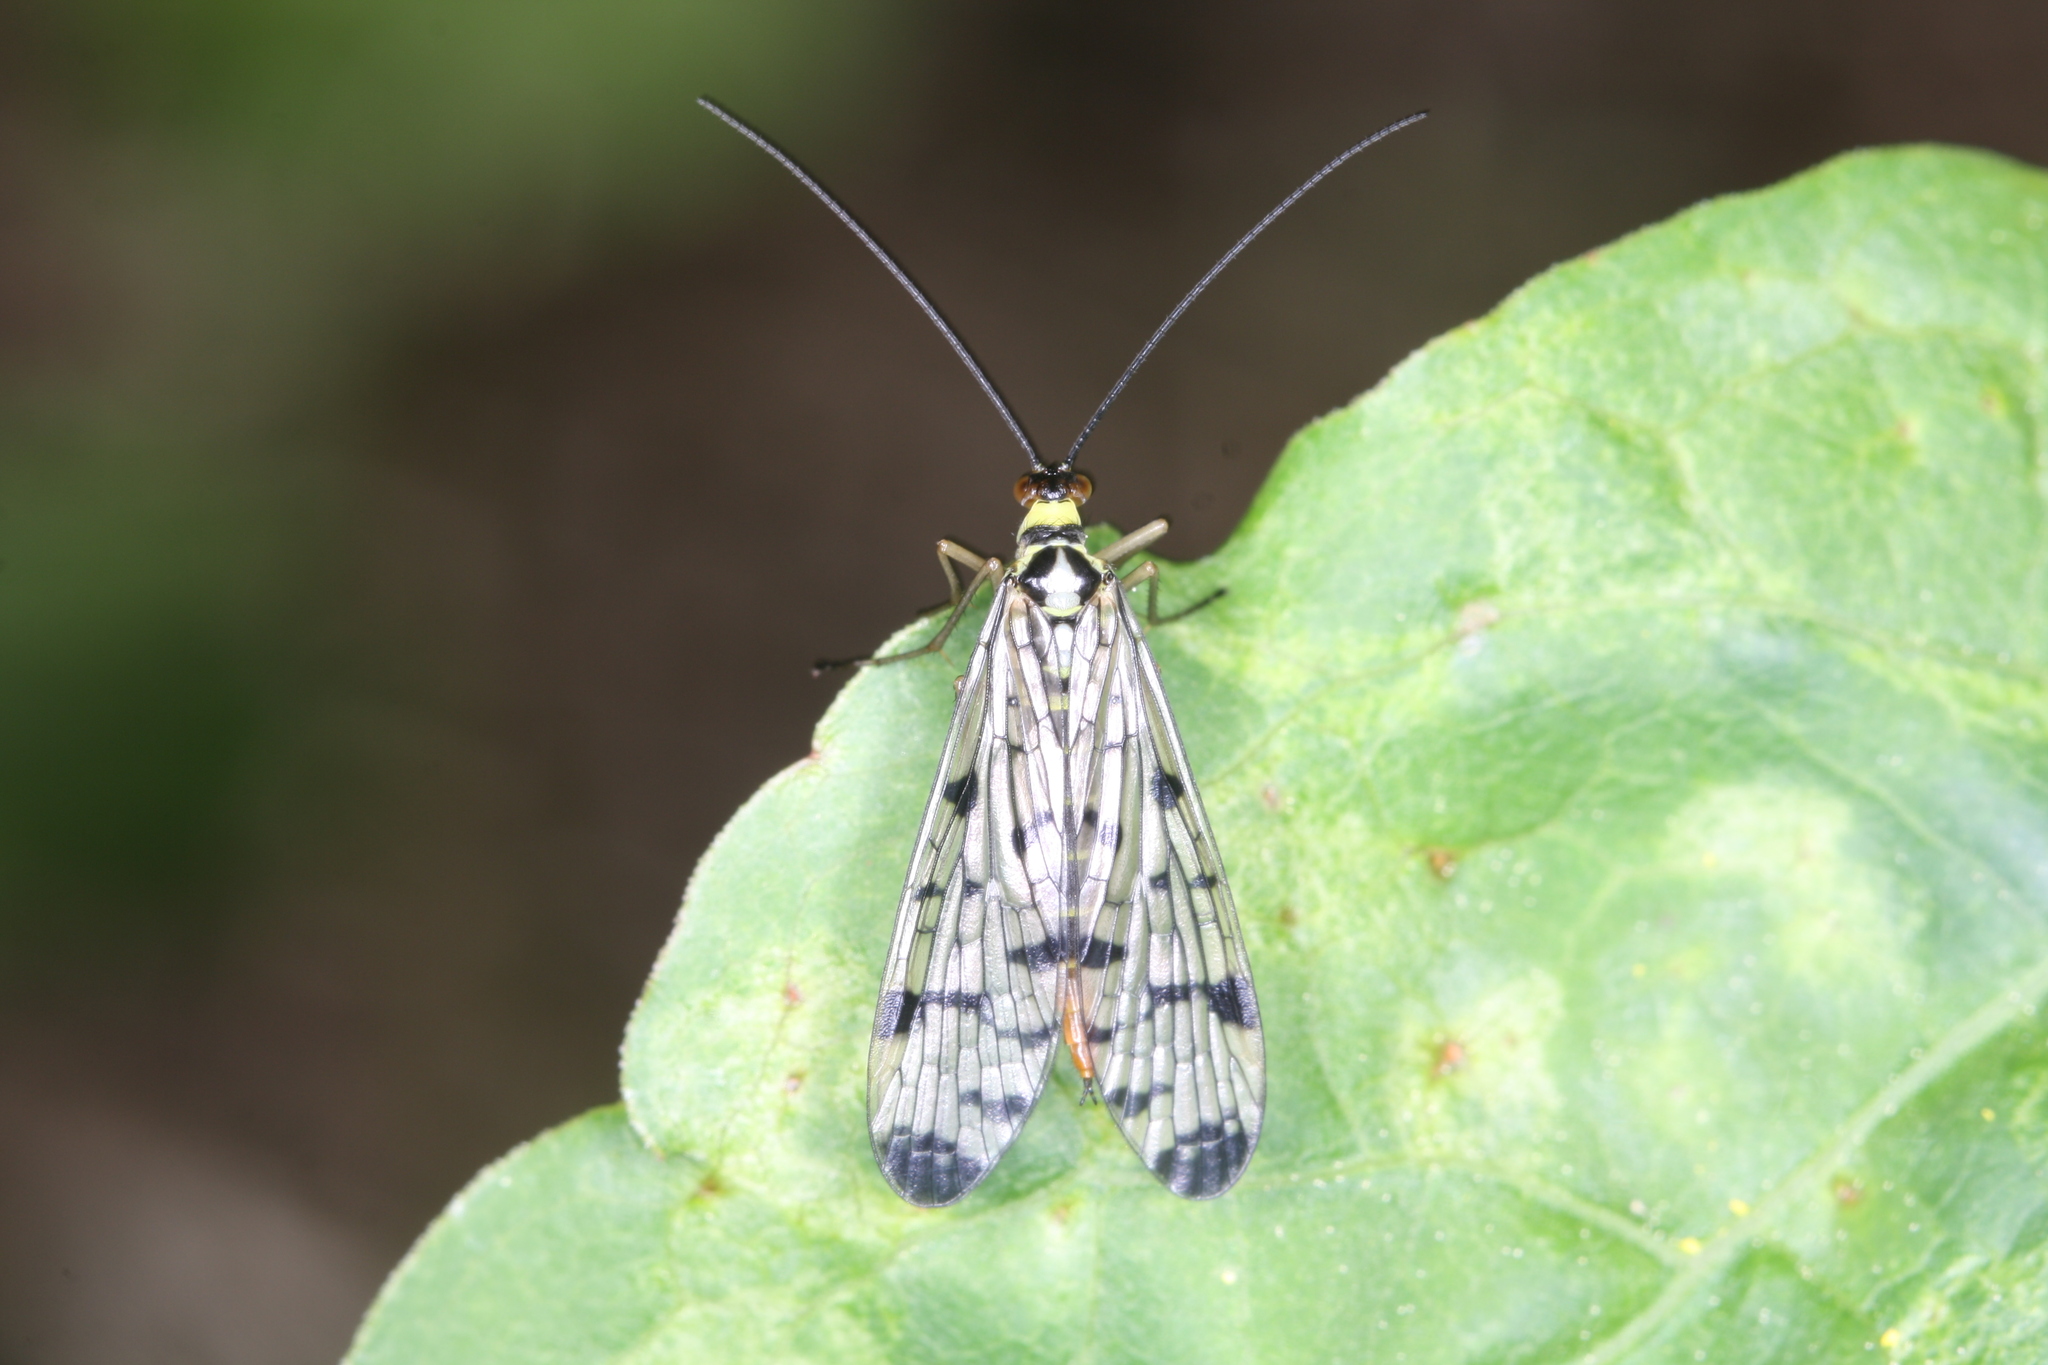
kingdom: Animalia
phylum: Arthropoda
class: Insecta
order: Mecoptera
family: Panorpidae
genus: Panorpa
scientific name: Panorpa germanica
